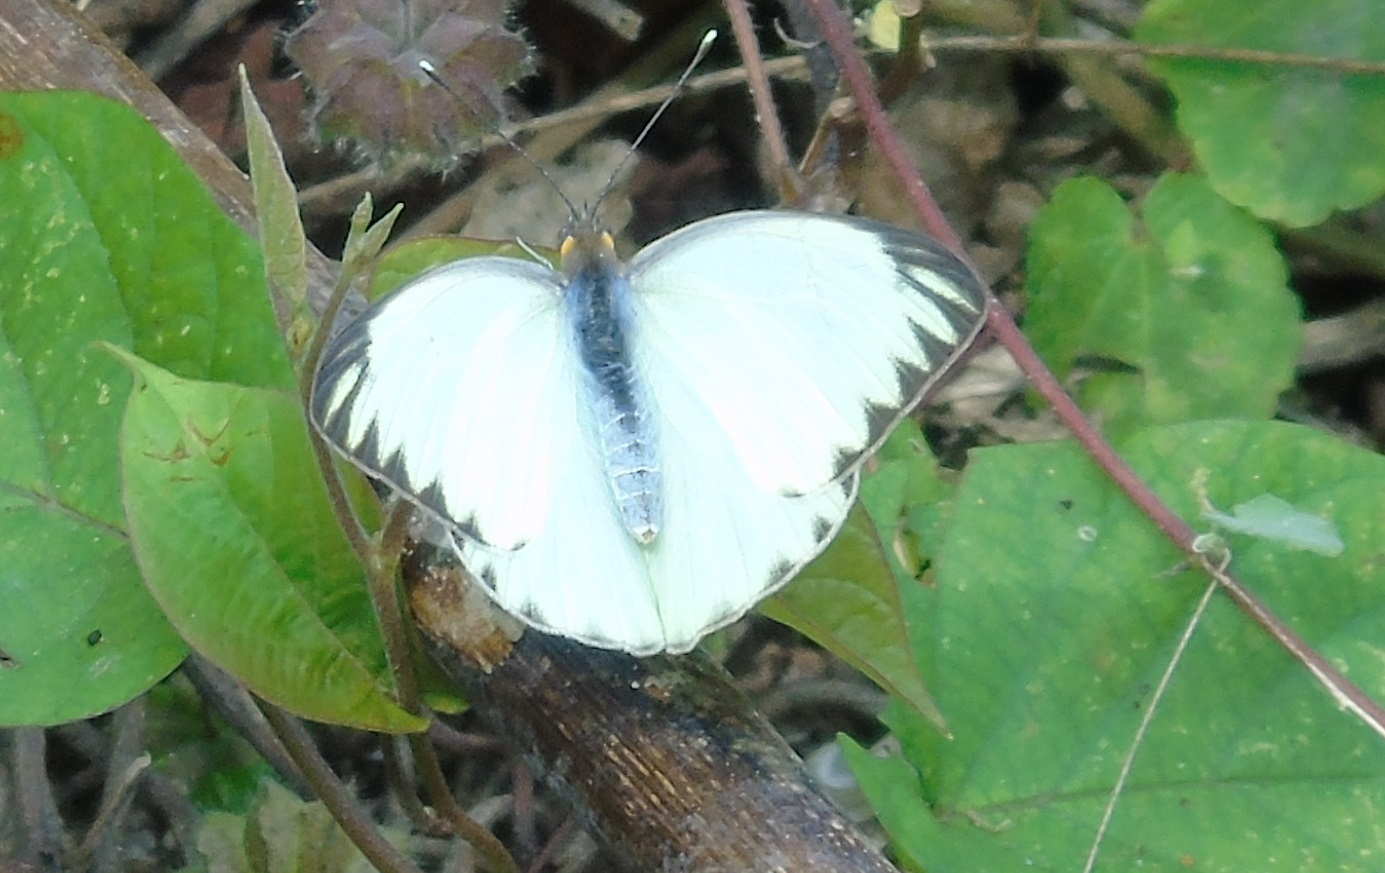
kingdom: Animalia
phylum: Arthropoda
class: Insecta
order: Lepidoptera
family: Pieridae
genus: Ascia
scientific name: Ascia monuste
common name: Great southern white
